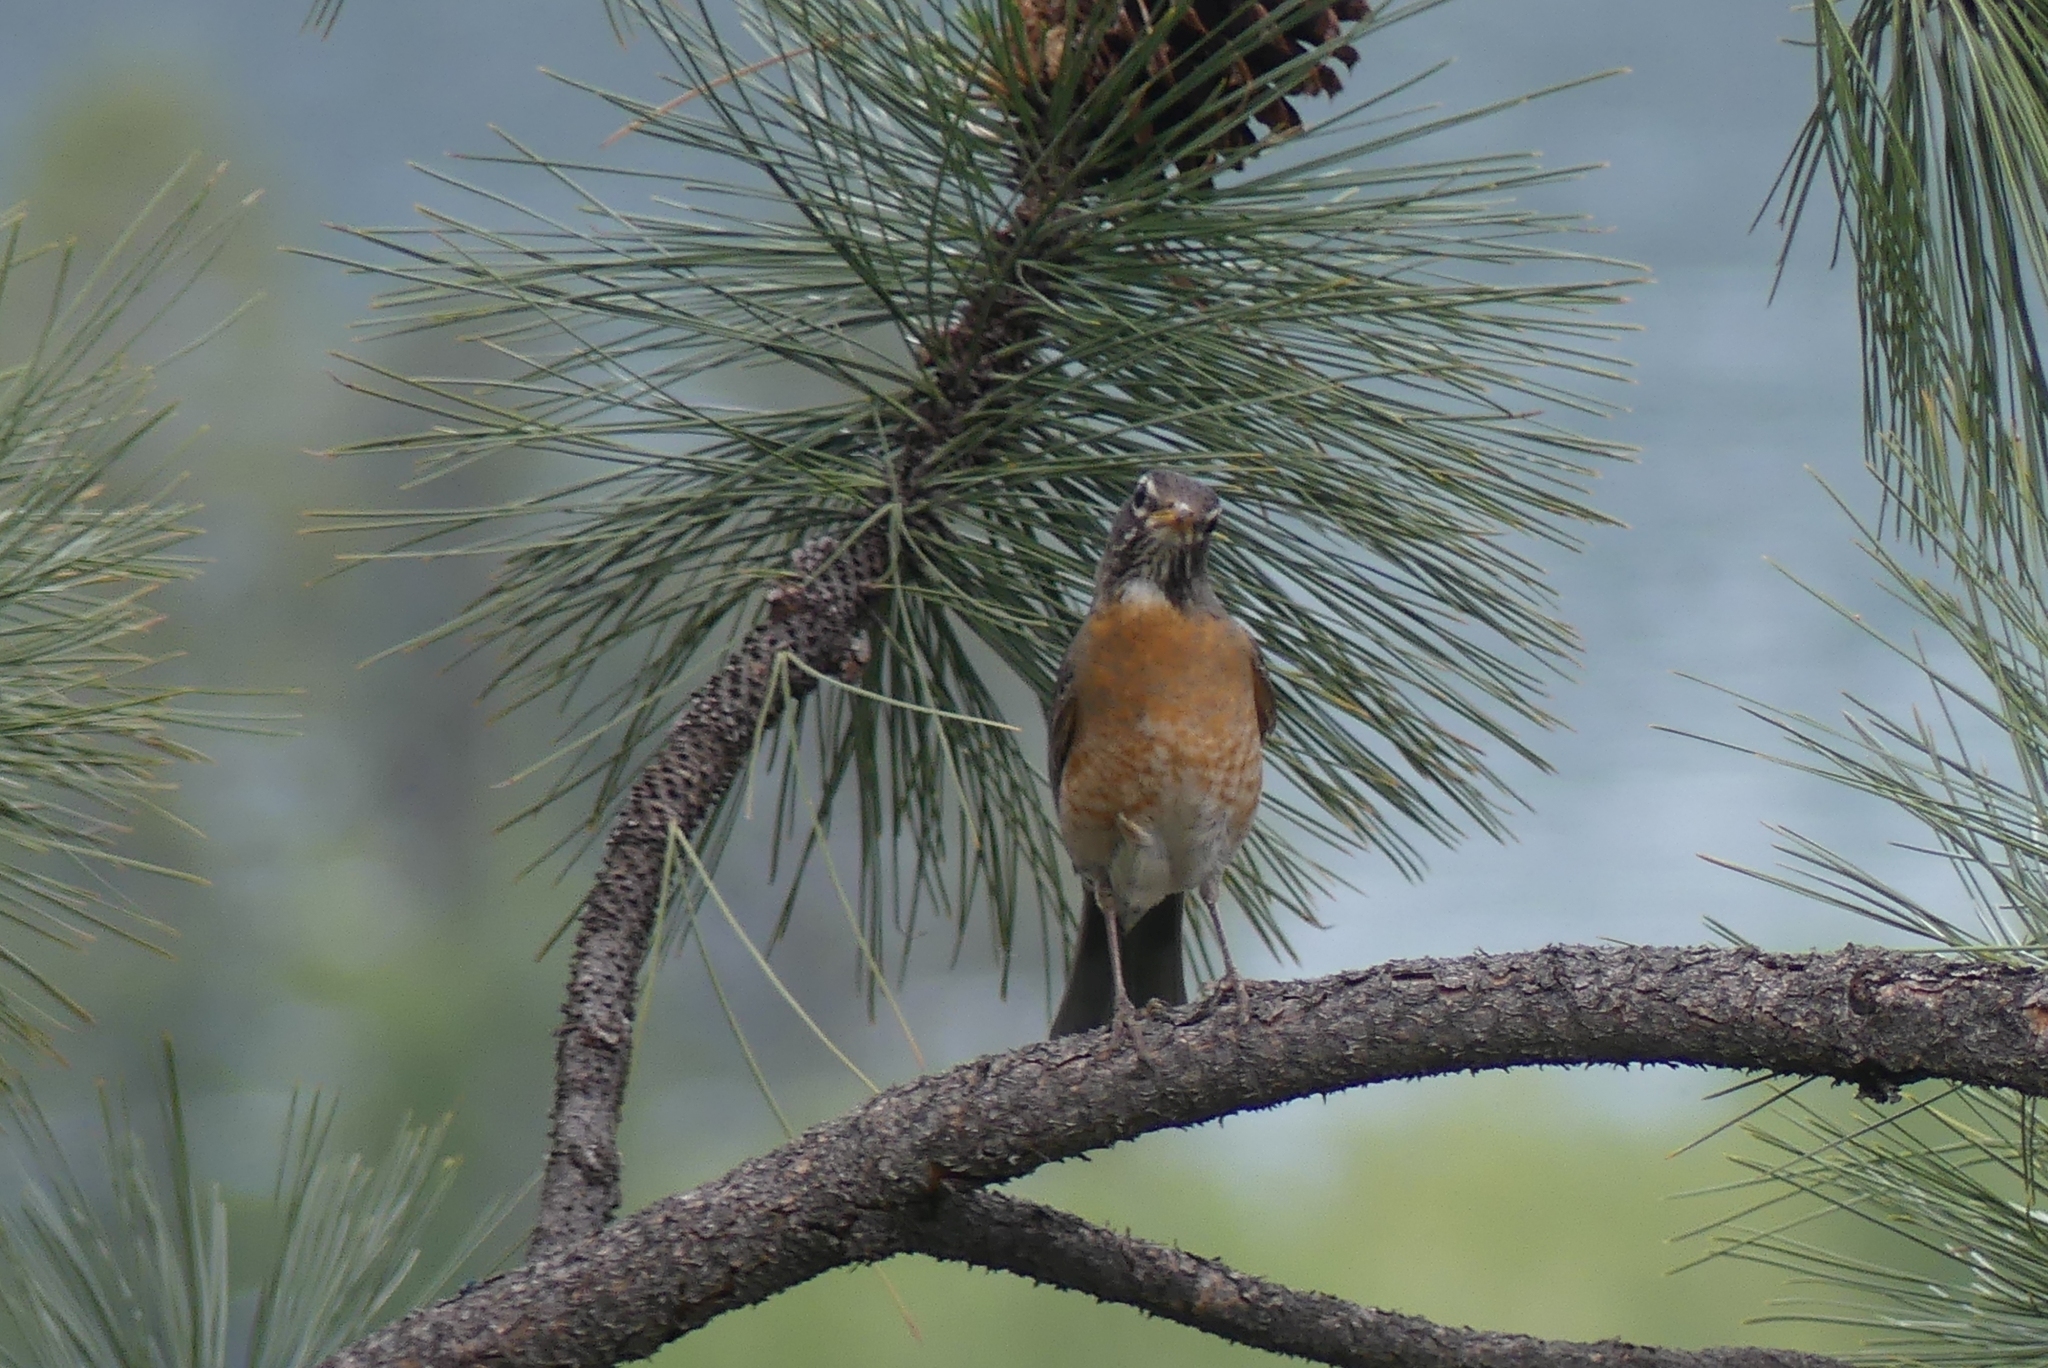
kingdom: Animalia
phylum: Chordata
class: Aves
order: Passeriformes
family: Turdidae
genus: Turdus
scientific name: Turdus migratorius
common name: American robin
